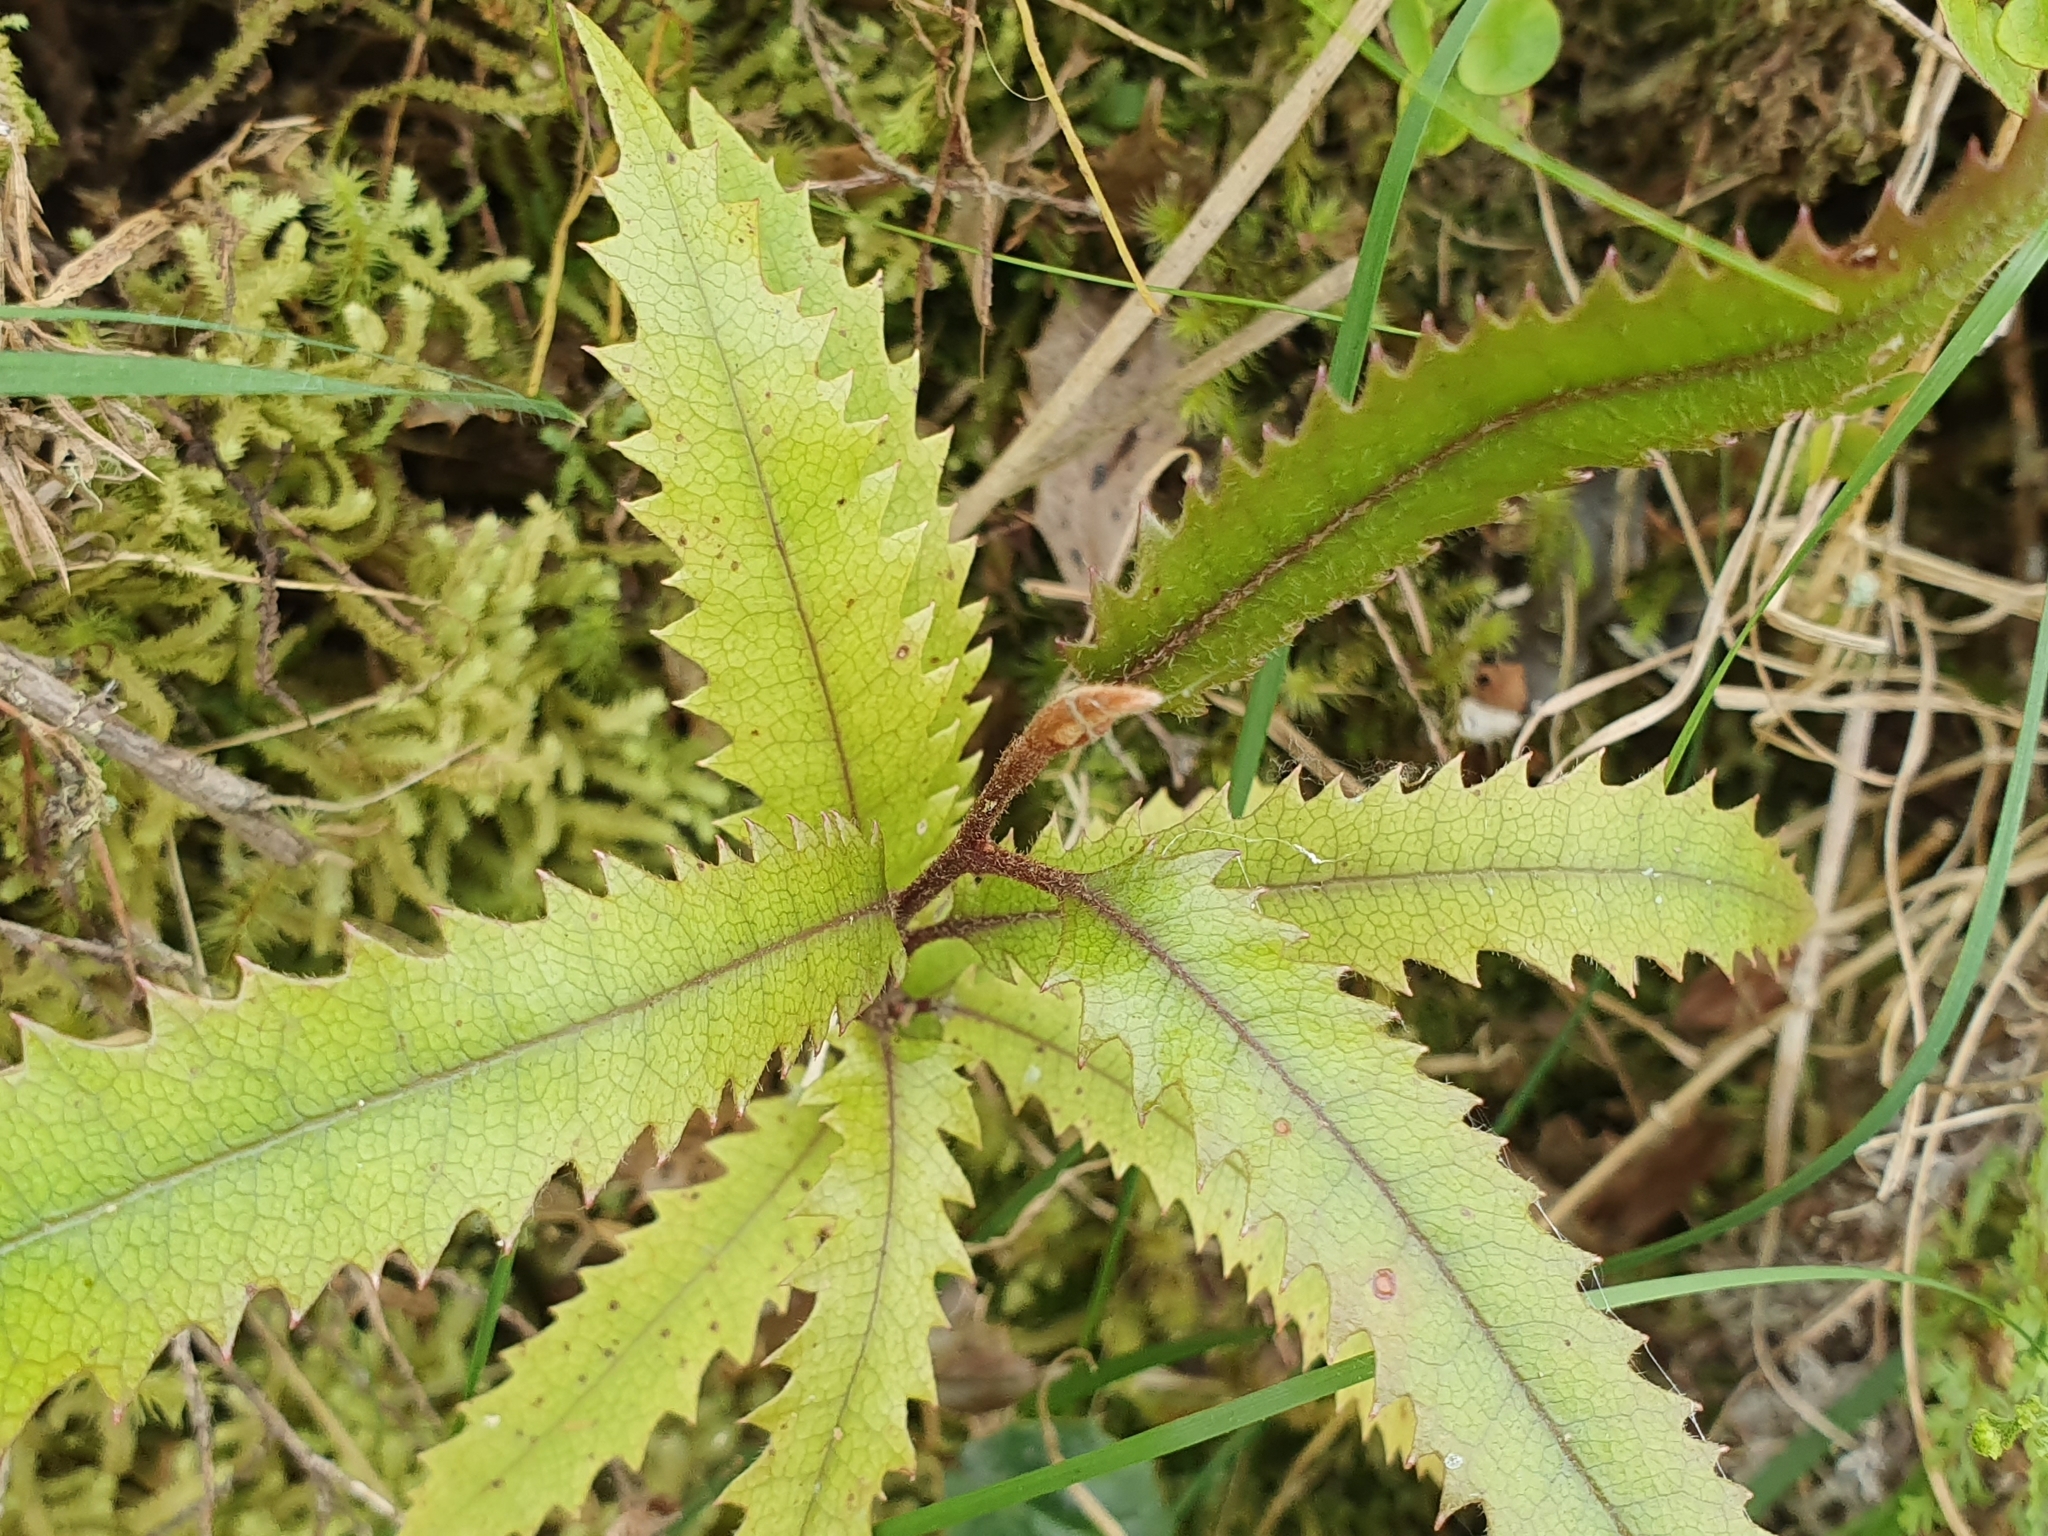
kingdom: Plantae
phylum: Tracheophyta
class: Magnoliopsida
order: Proteales
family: Proteaceae
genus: Knightia
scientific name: Knightia excelsa
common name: New zealand-honeysuckle
